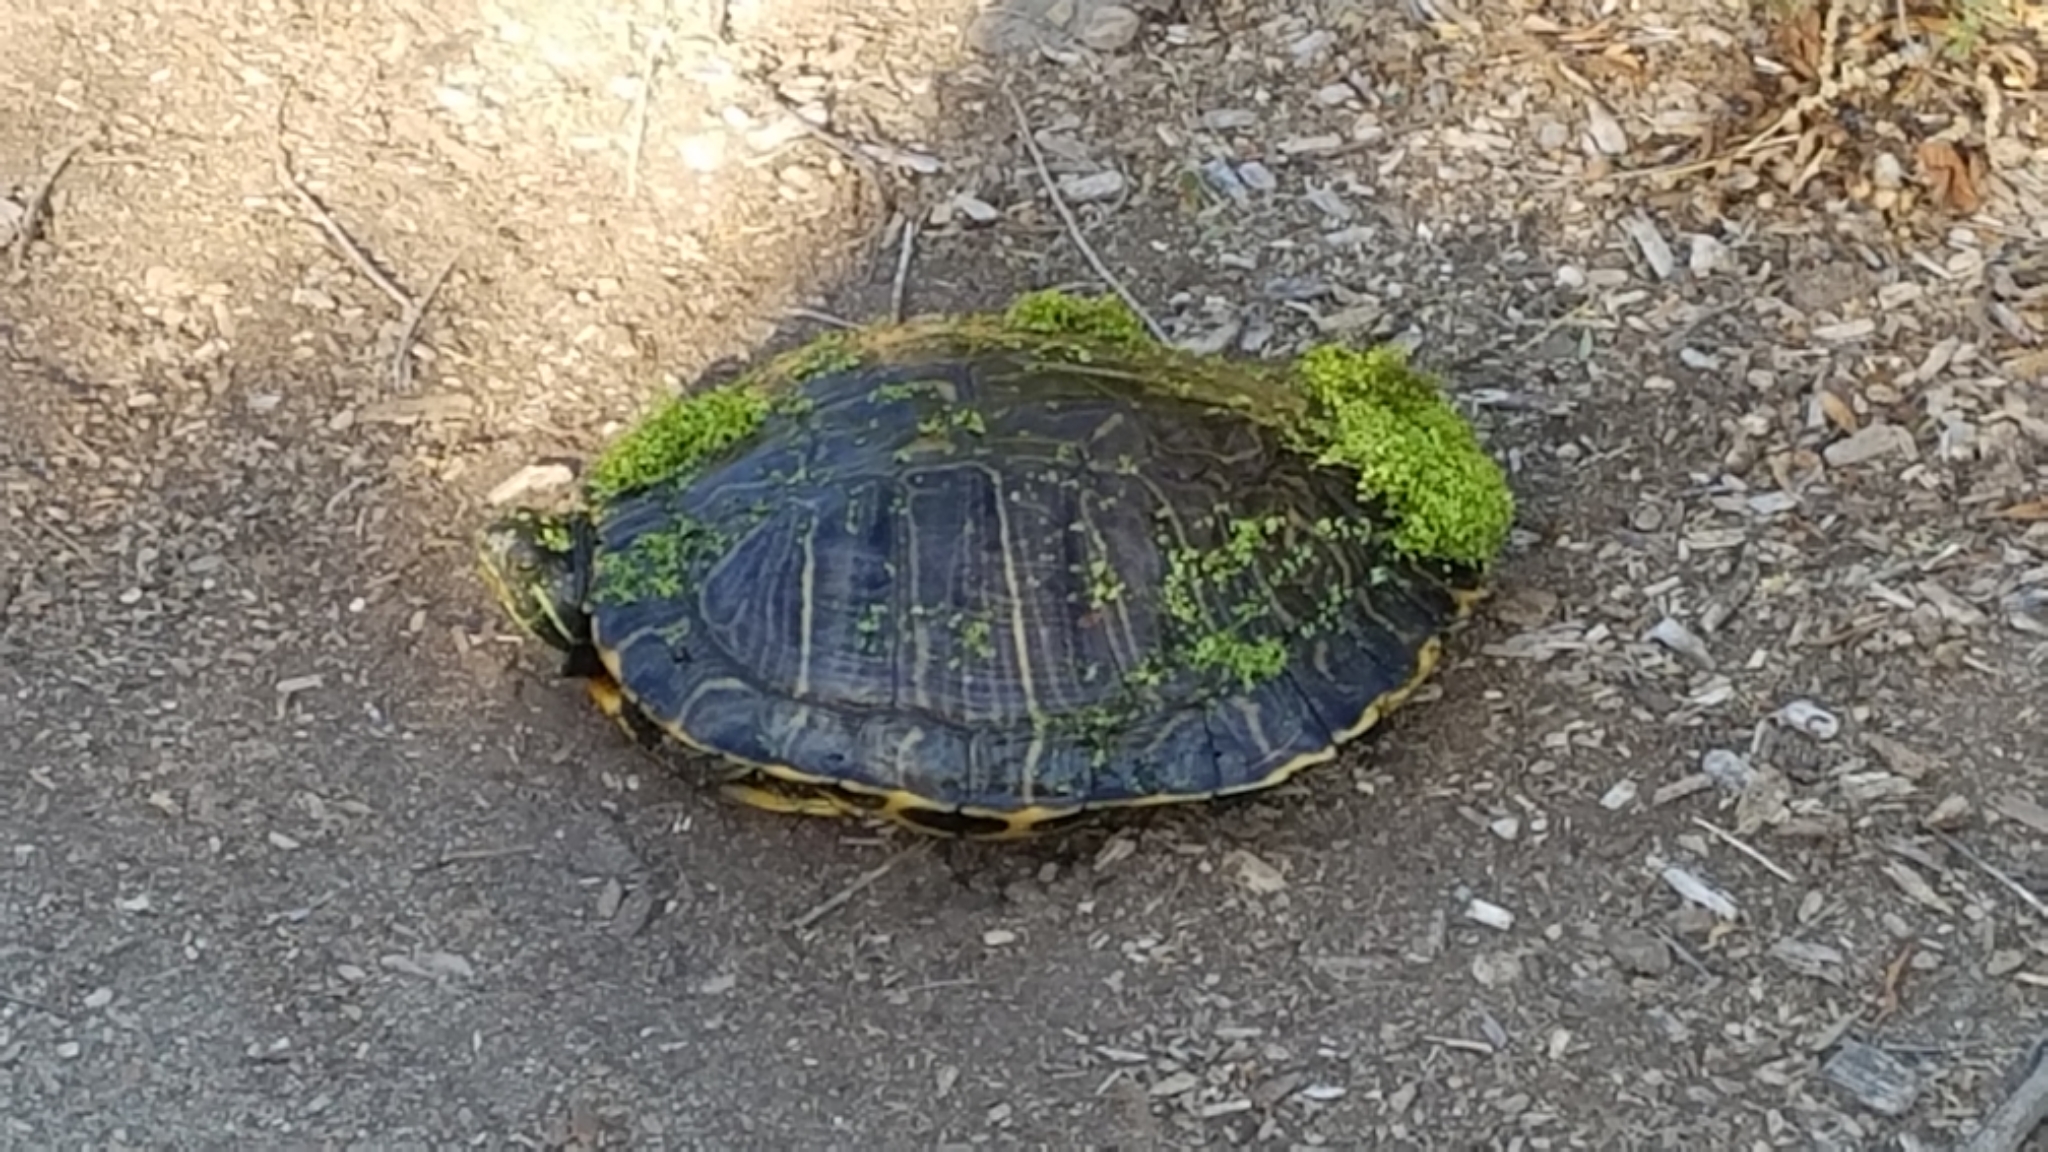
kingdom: Animalia
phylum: Chordata
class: Testudines
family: Emydidae
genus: Trachemys
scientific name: Trachemys scripta
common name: Slider
